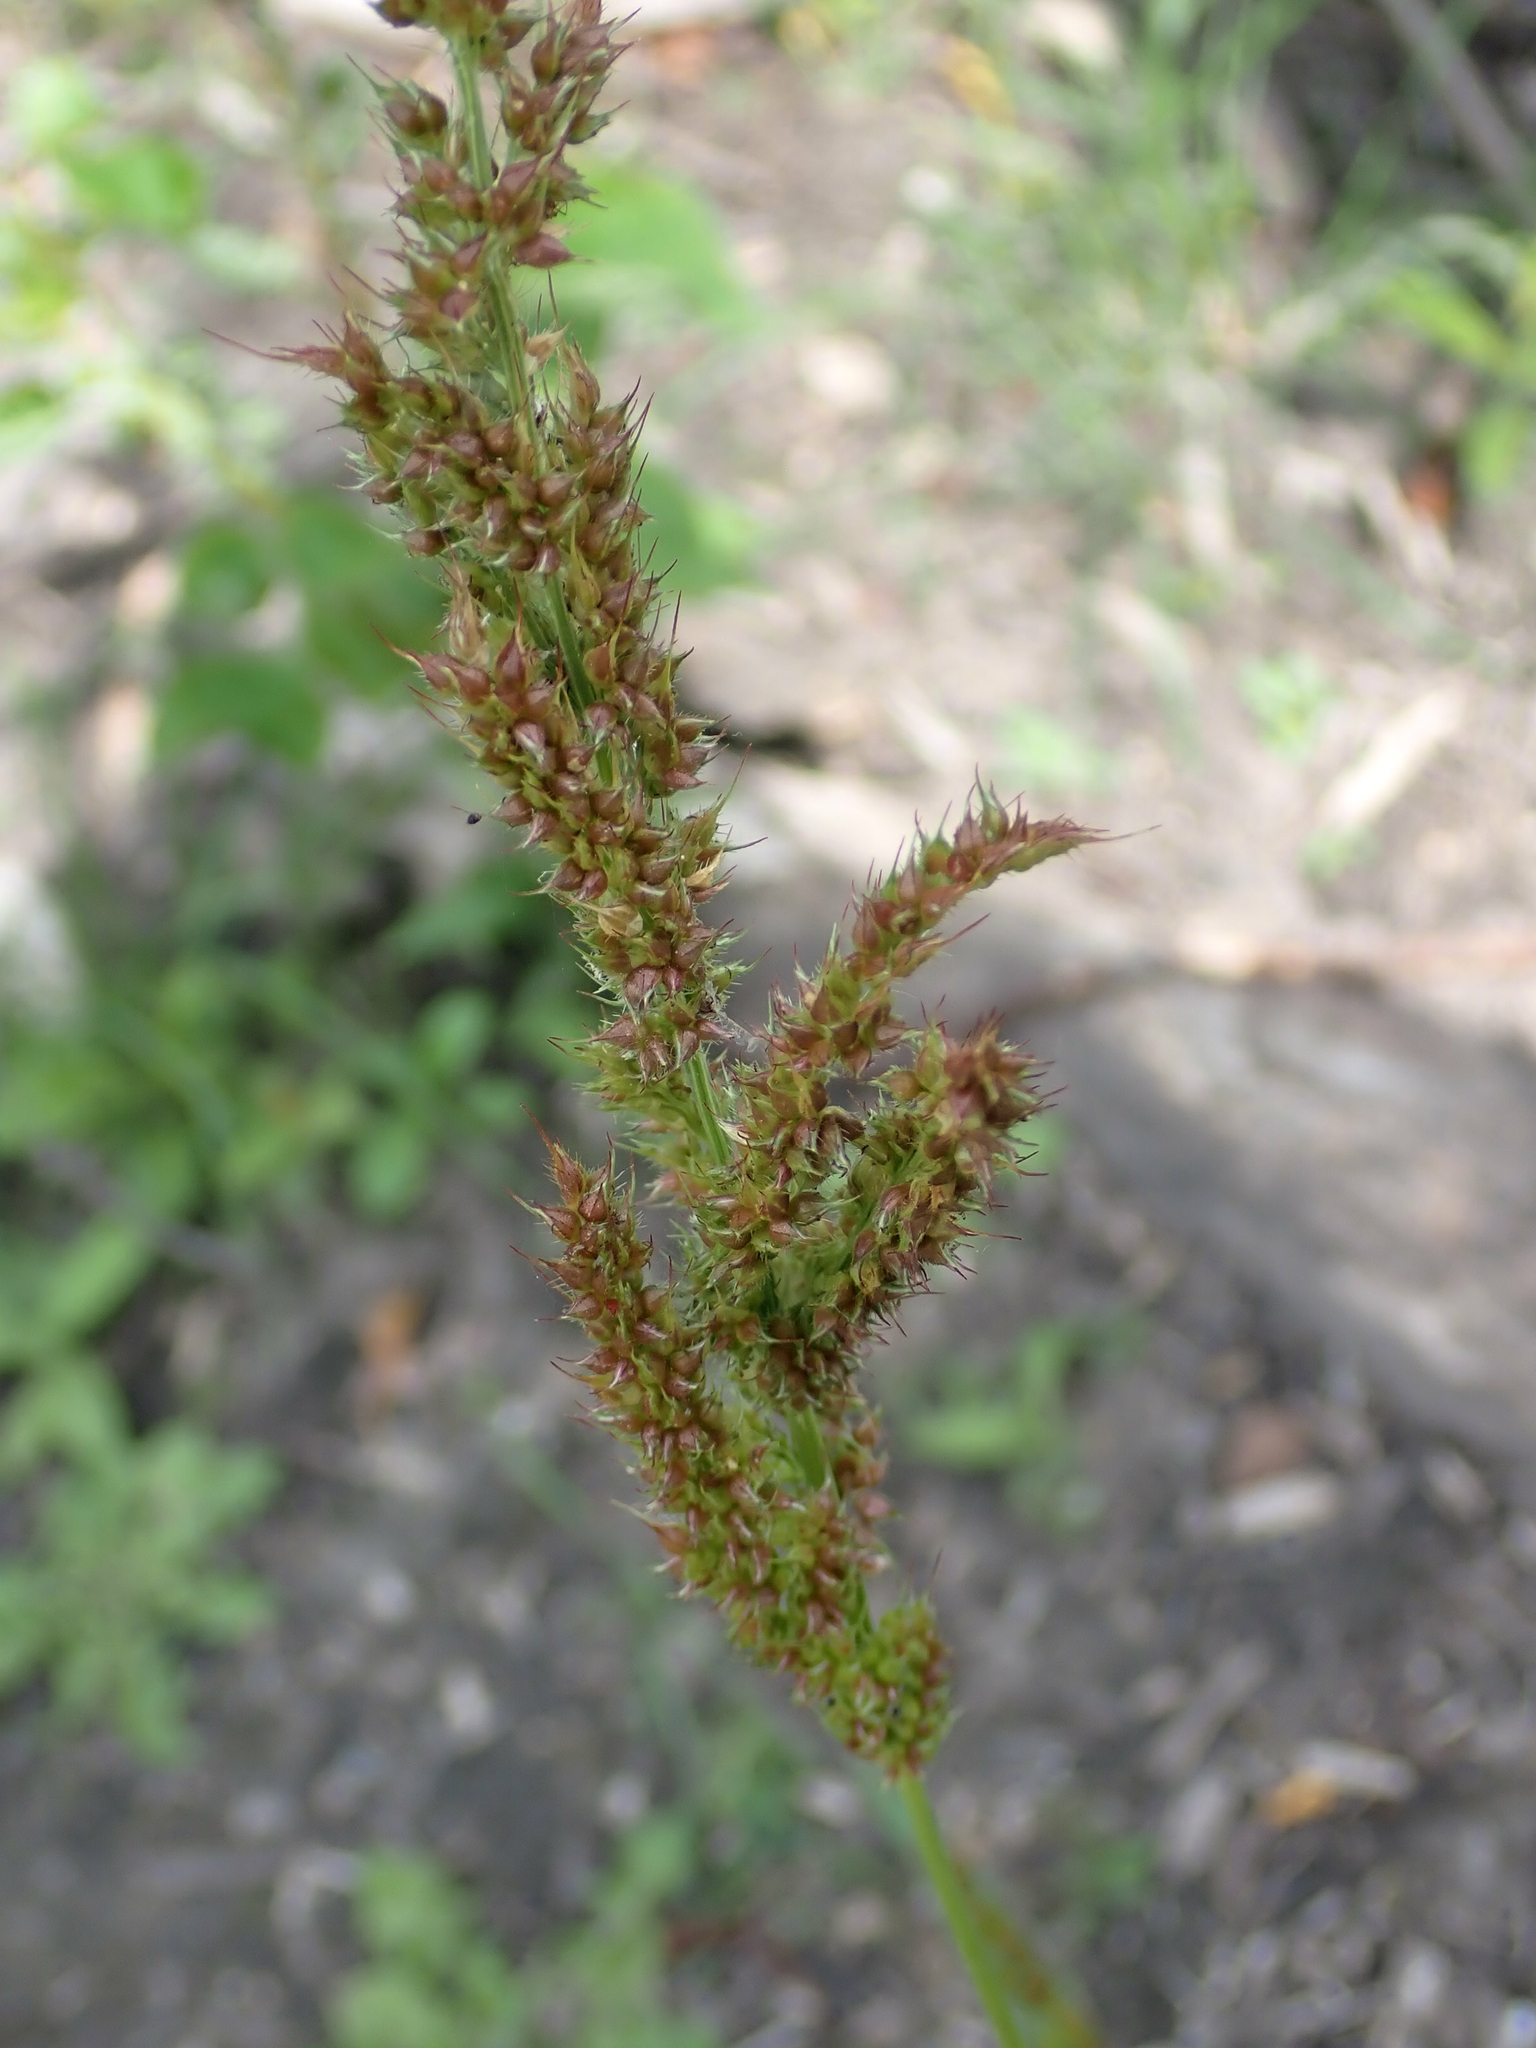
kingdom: Plantae
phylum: Tracheophyta
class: Liliopsida
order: Poales
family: Poaceae
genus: Echinochloa
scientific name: Echinochloa crus-galli
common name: Cockspur
